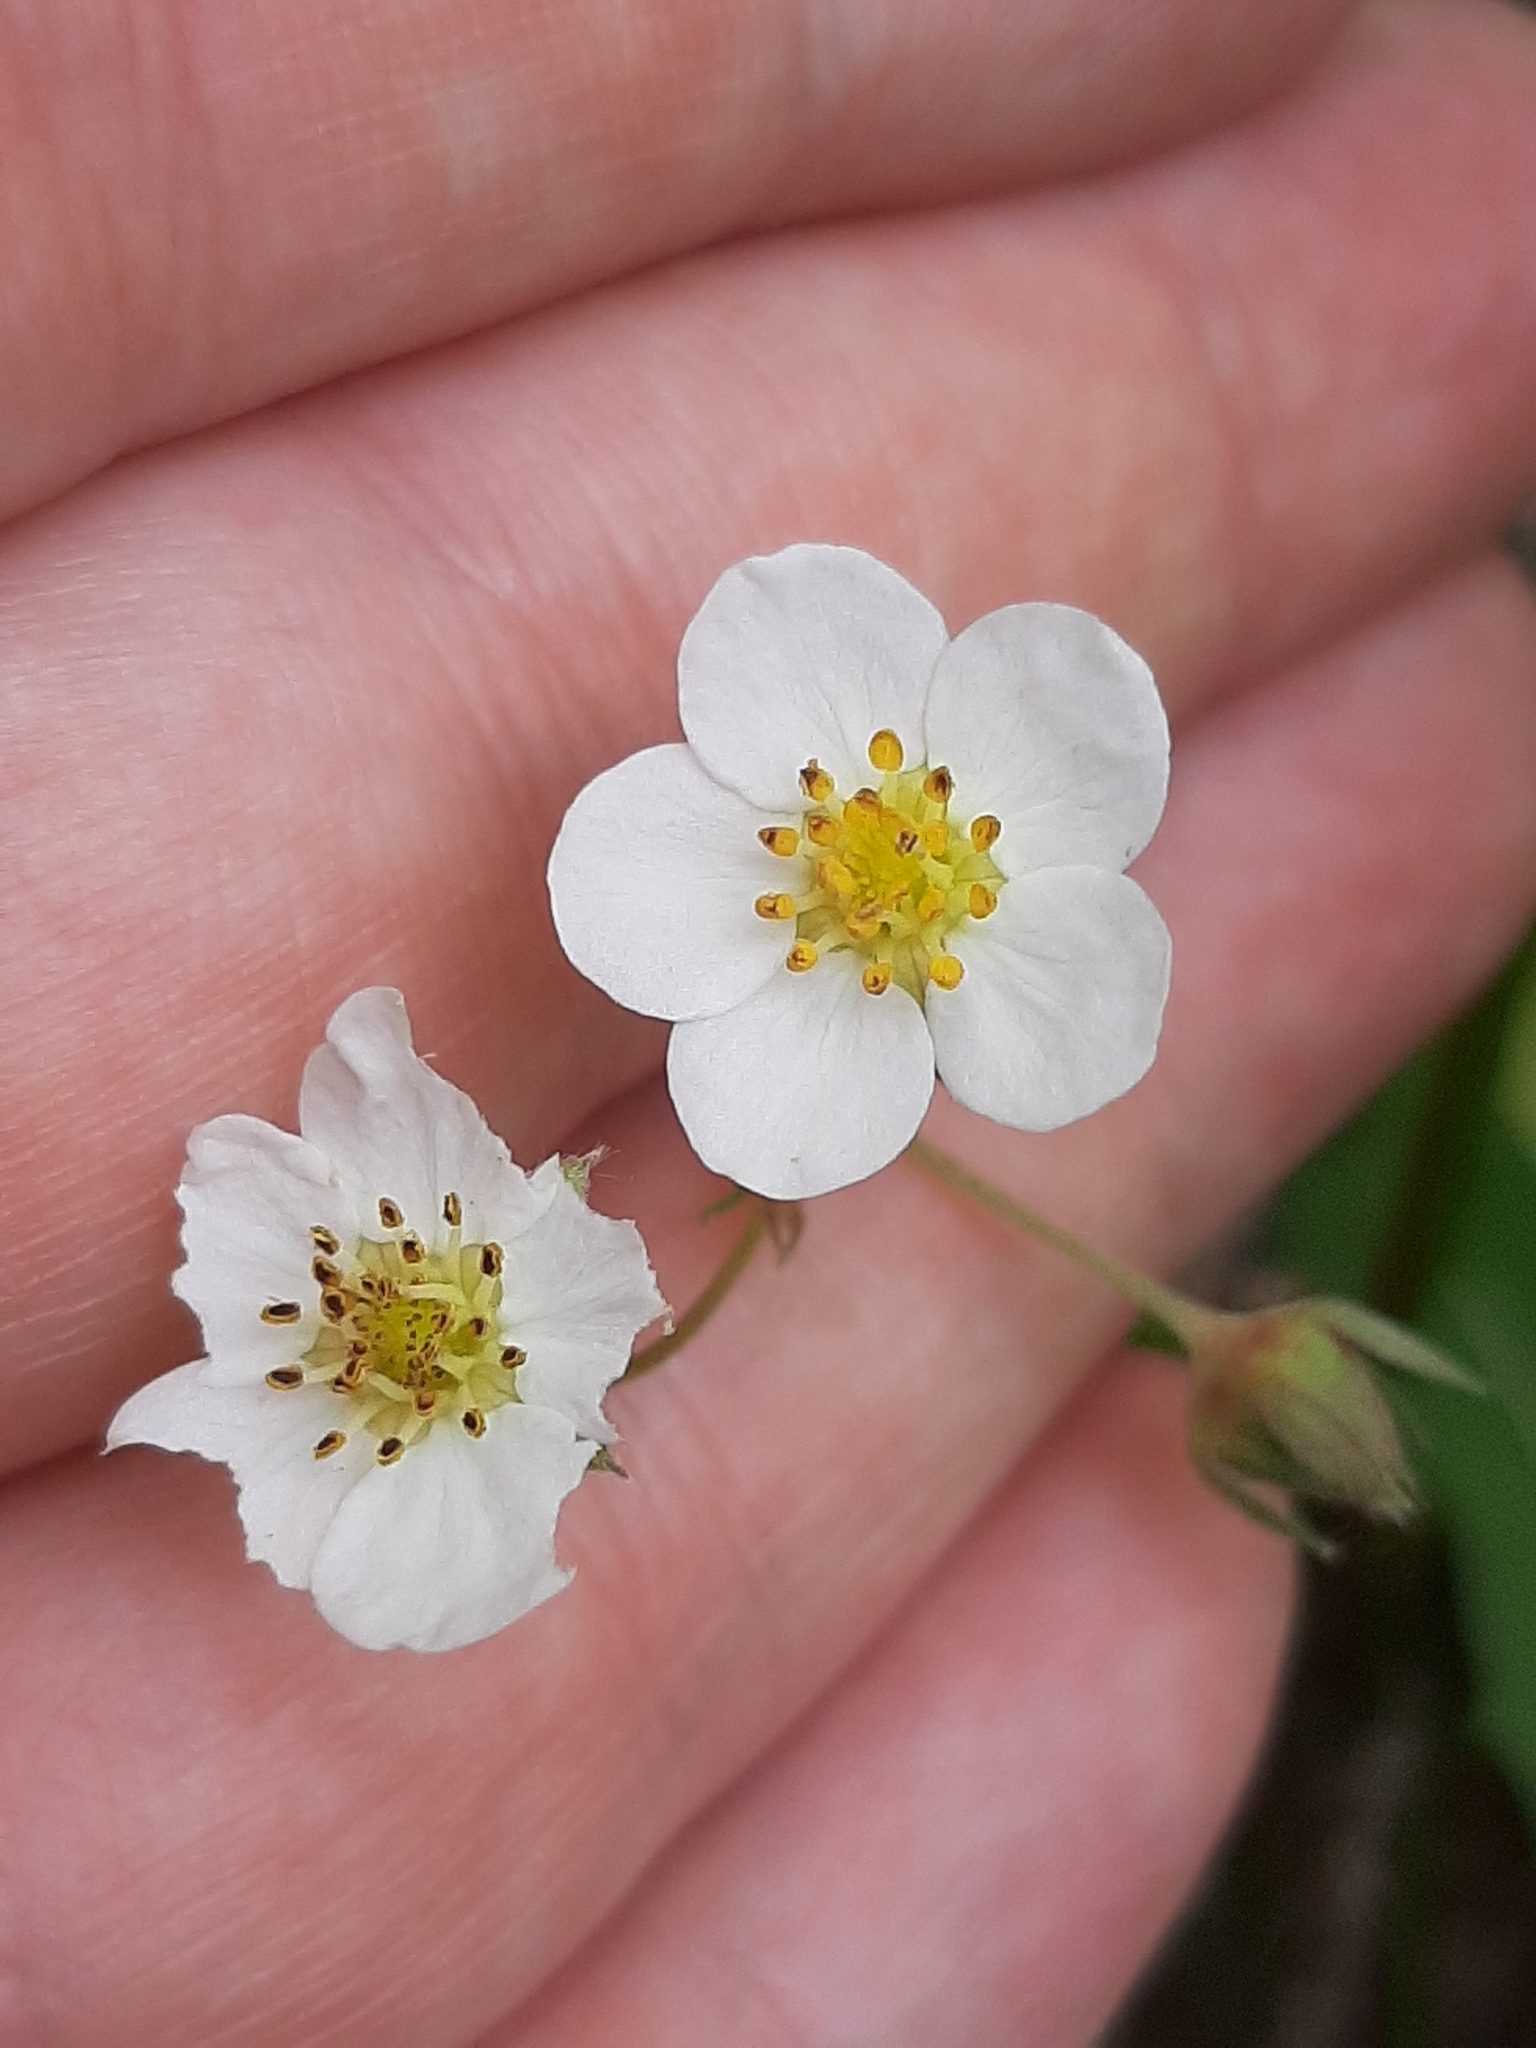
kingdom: Plantae
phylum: Tracheophyta
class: Magnoliopsida
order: Rosales
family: Rosaceae
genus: Fragaria
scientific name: Fragaria virginiana
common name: Thickleaved wild strawberry
